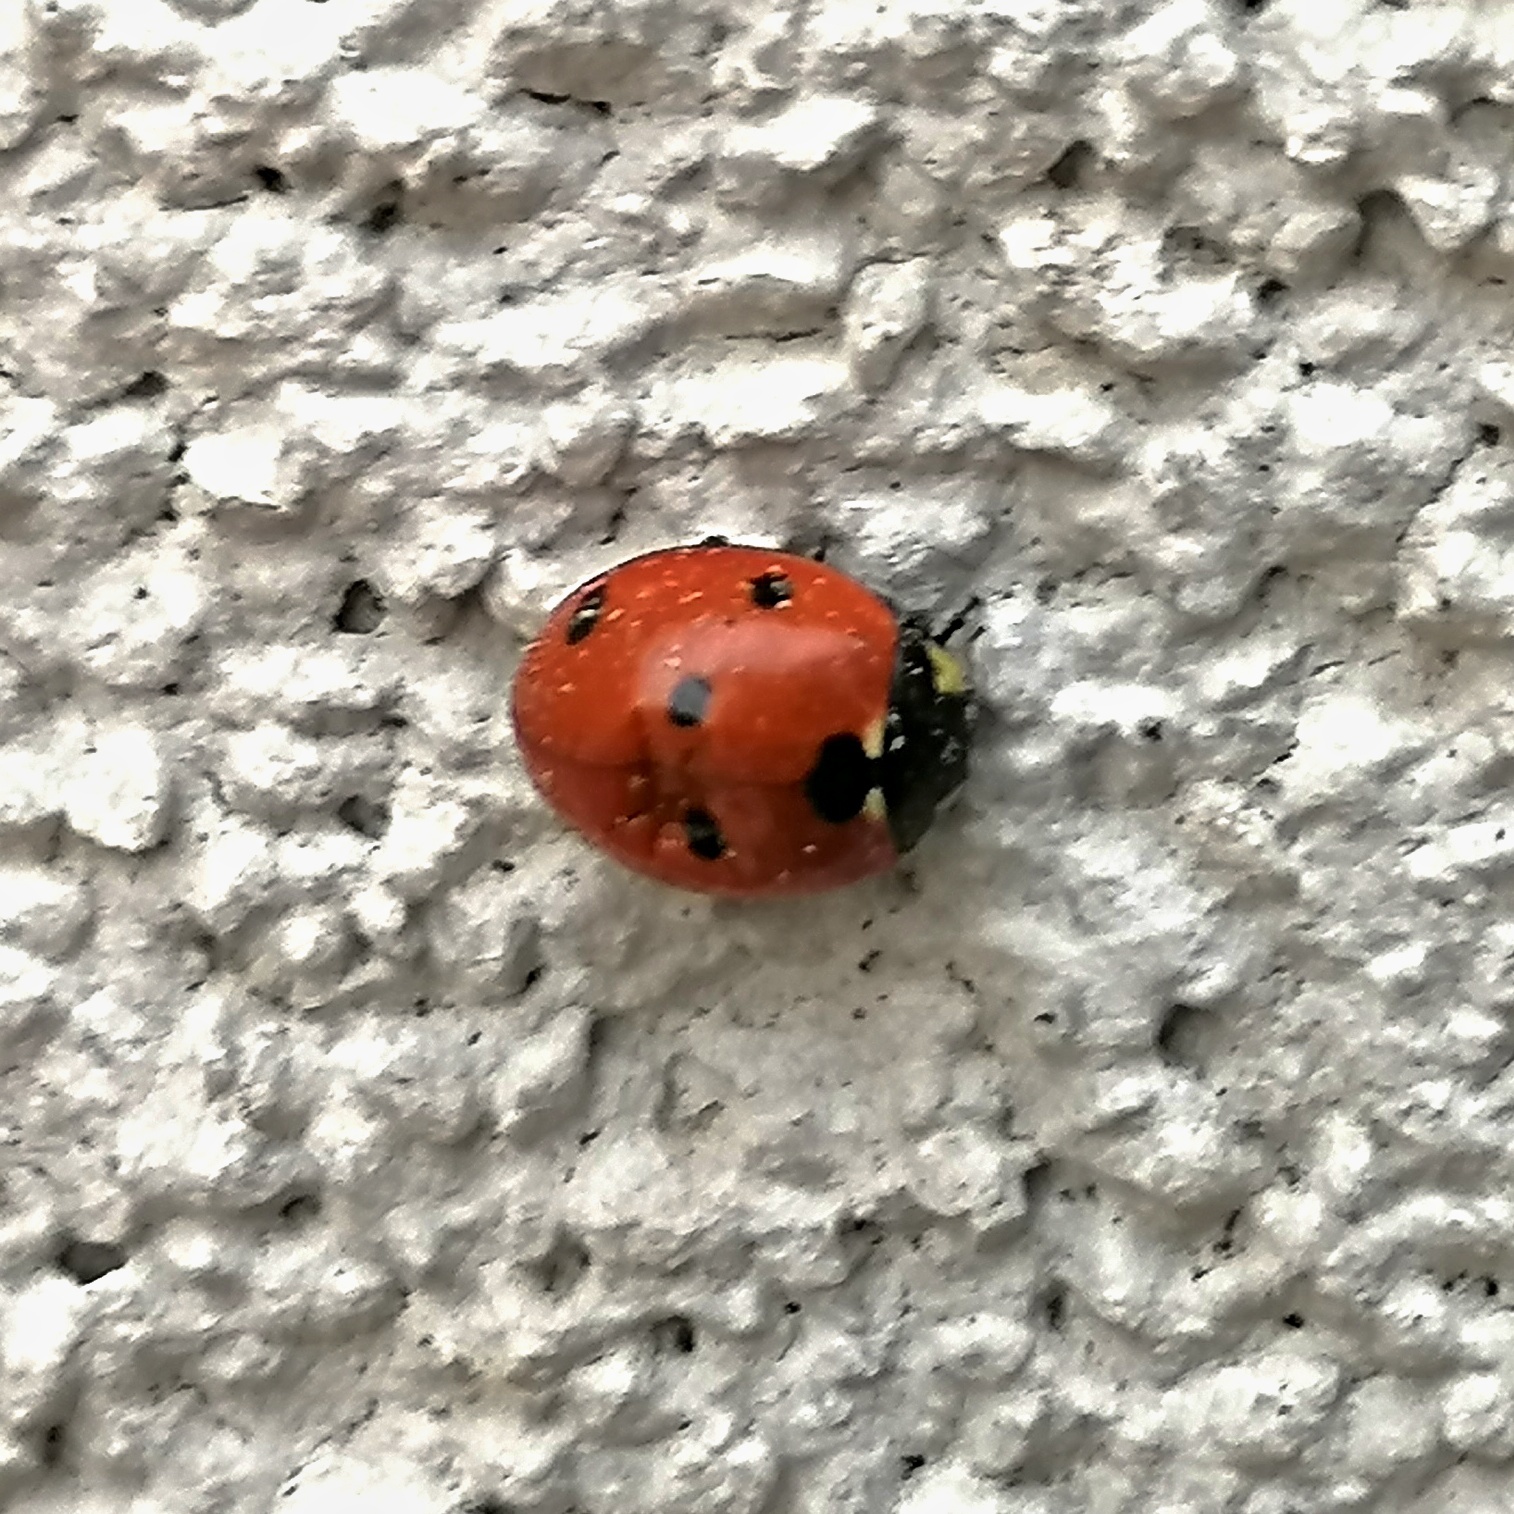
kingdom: Animalia
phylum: Arthropoda
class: Insecta
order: Coleoptera
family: Coccinellidae
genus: Coccinella
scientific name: Coccinella septempunctata
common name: Sevenspotted lady beetle
